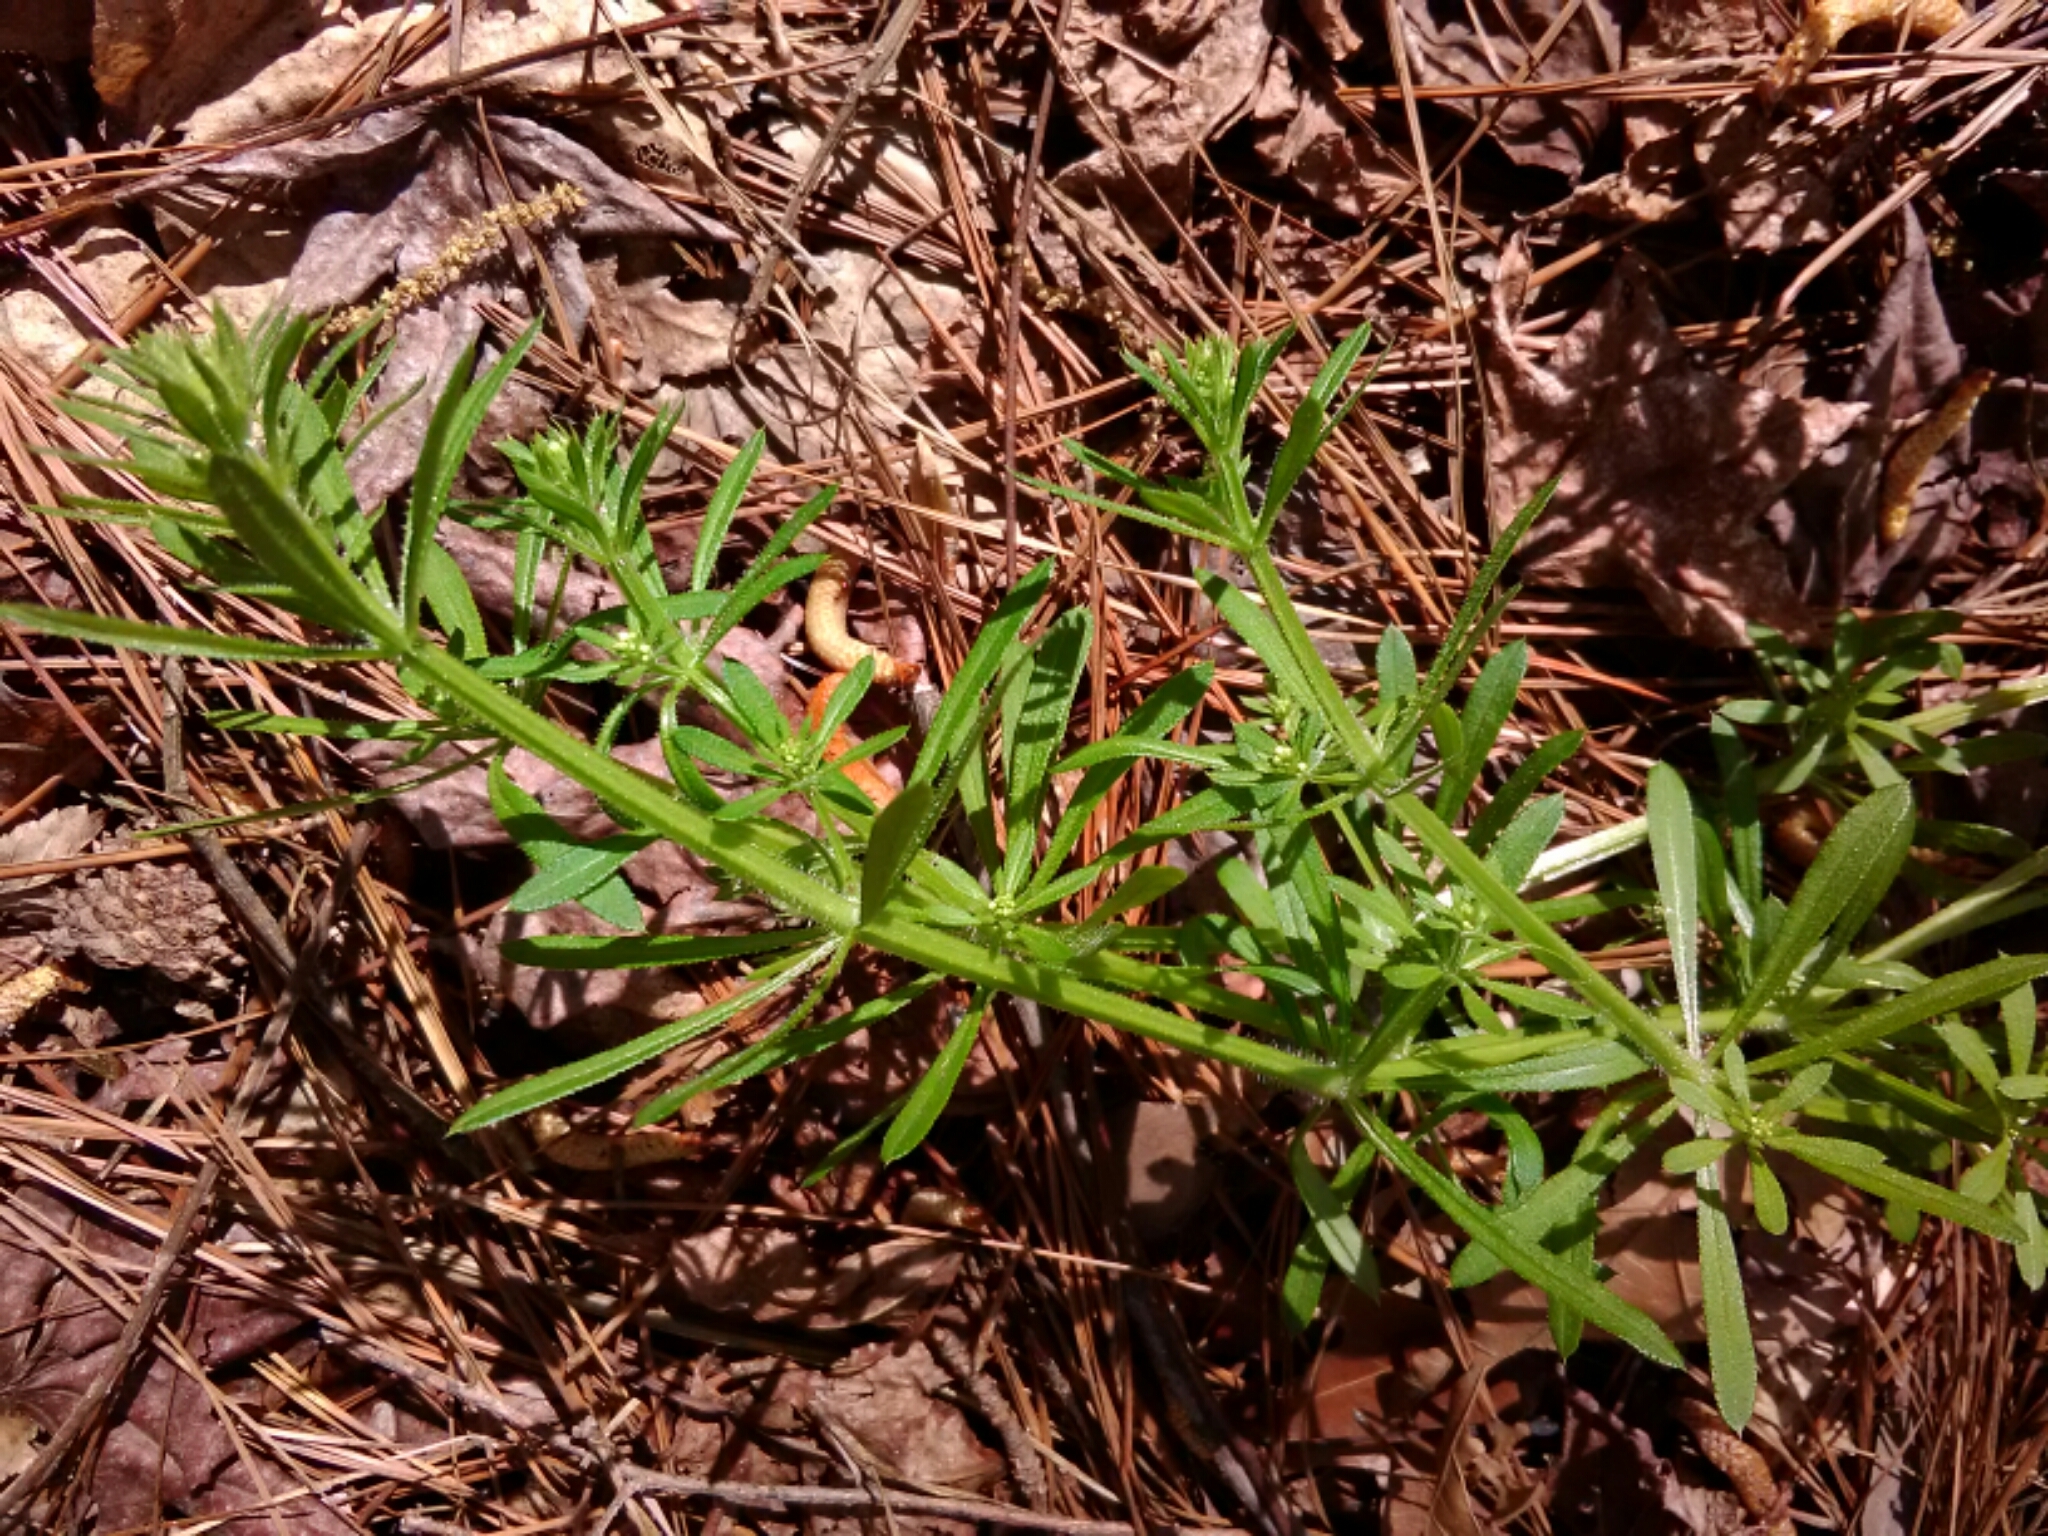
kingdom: Plantae
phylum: Tracheophyta
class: Magnoliopsida
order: Gentianales
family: Rubiaceae
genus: Galium
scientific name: Galium aparine
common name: Cleavers
